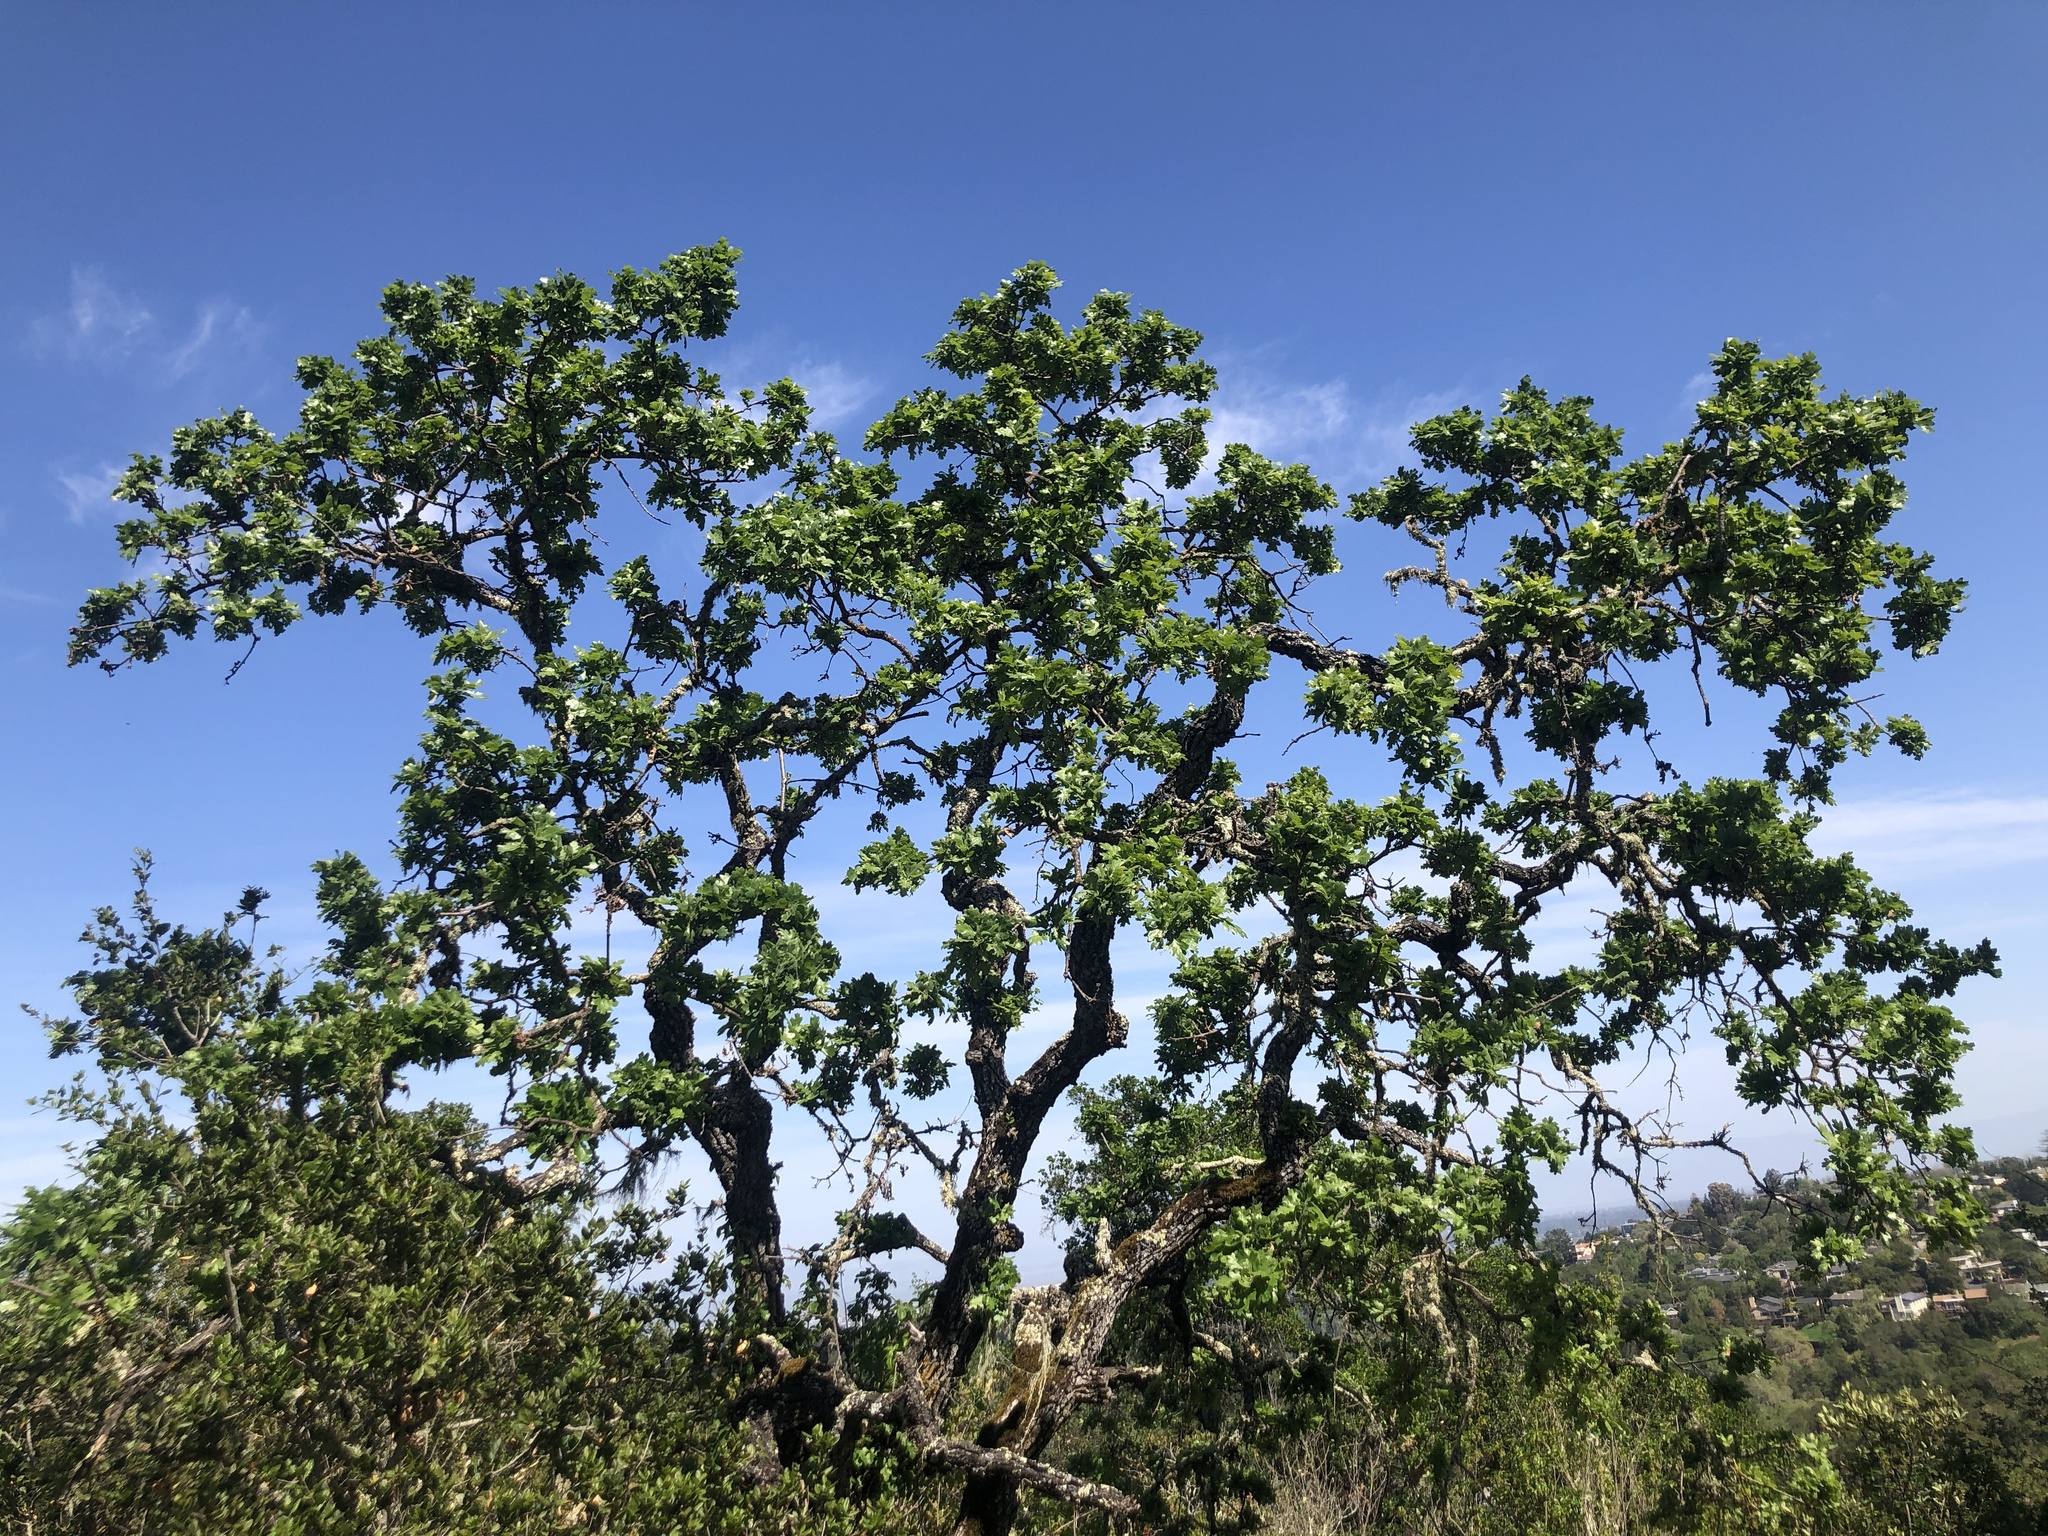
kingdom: Plantae
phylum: Tracheophyta
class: Magnoliopsida
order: Fagales
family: Fagaceae
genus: Quercus
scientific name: Quercus lobata
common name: Valley oak
